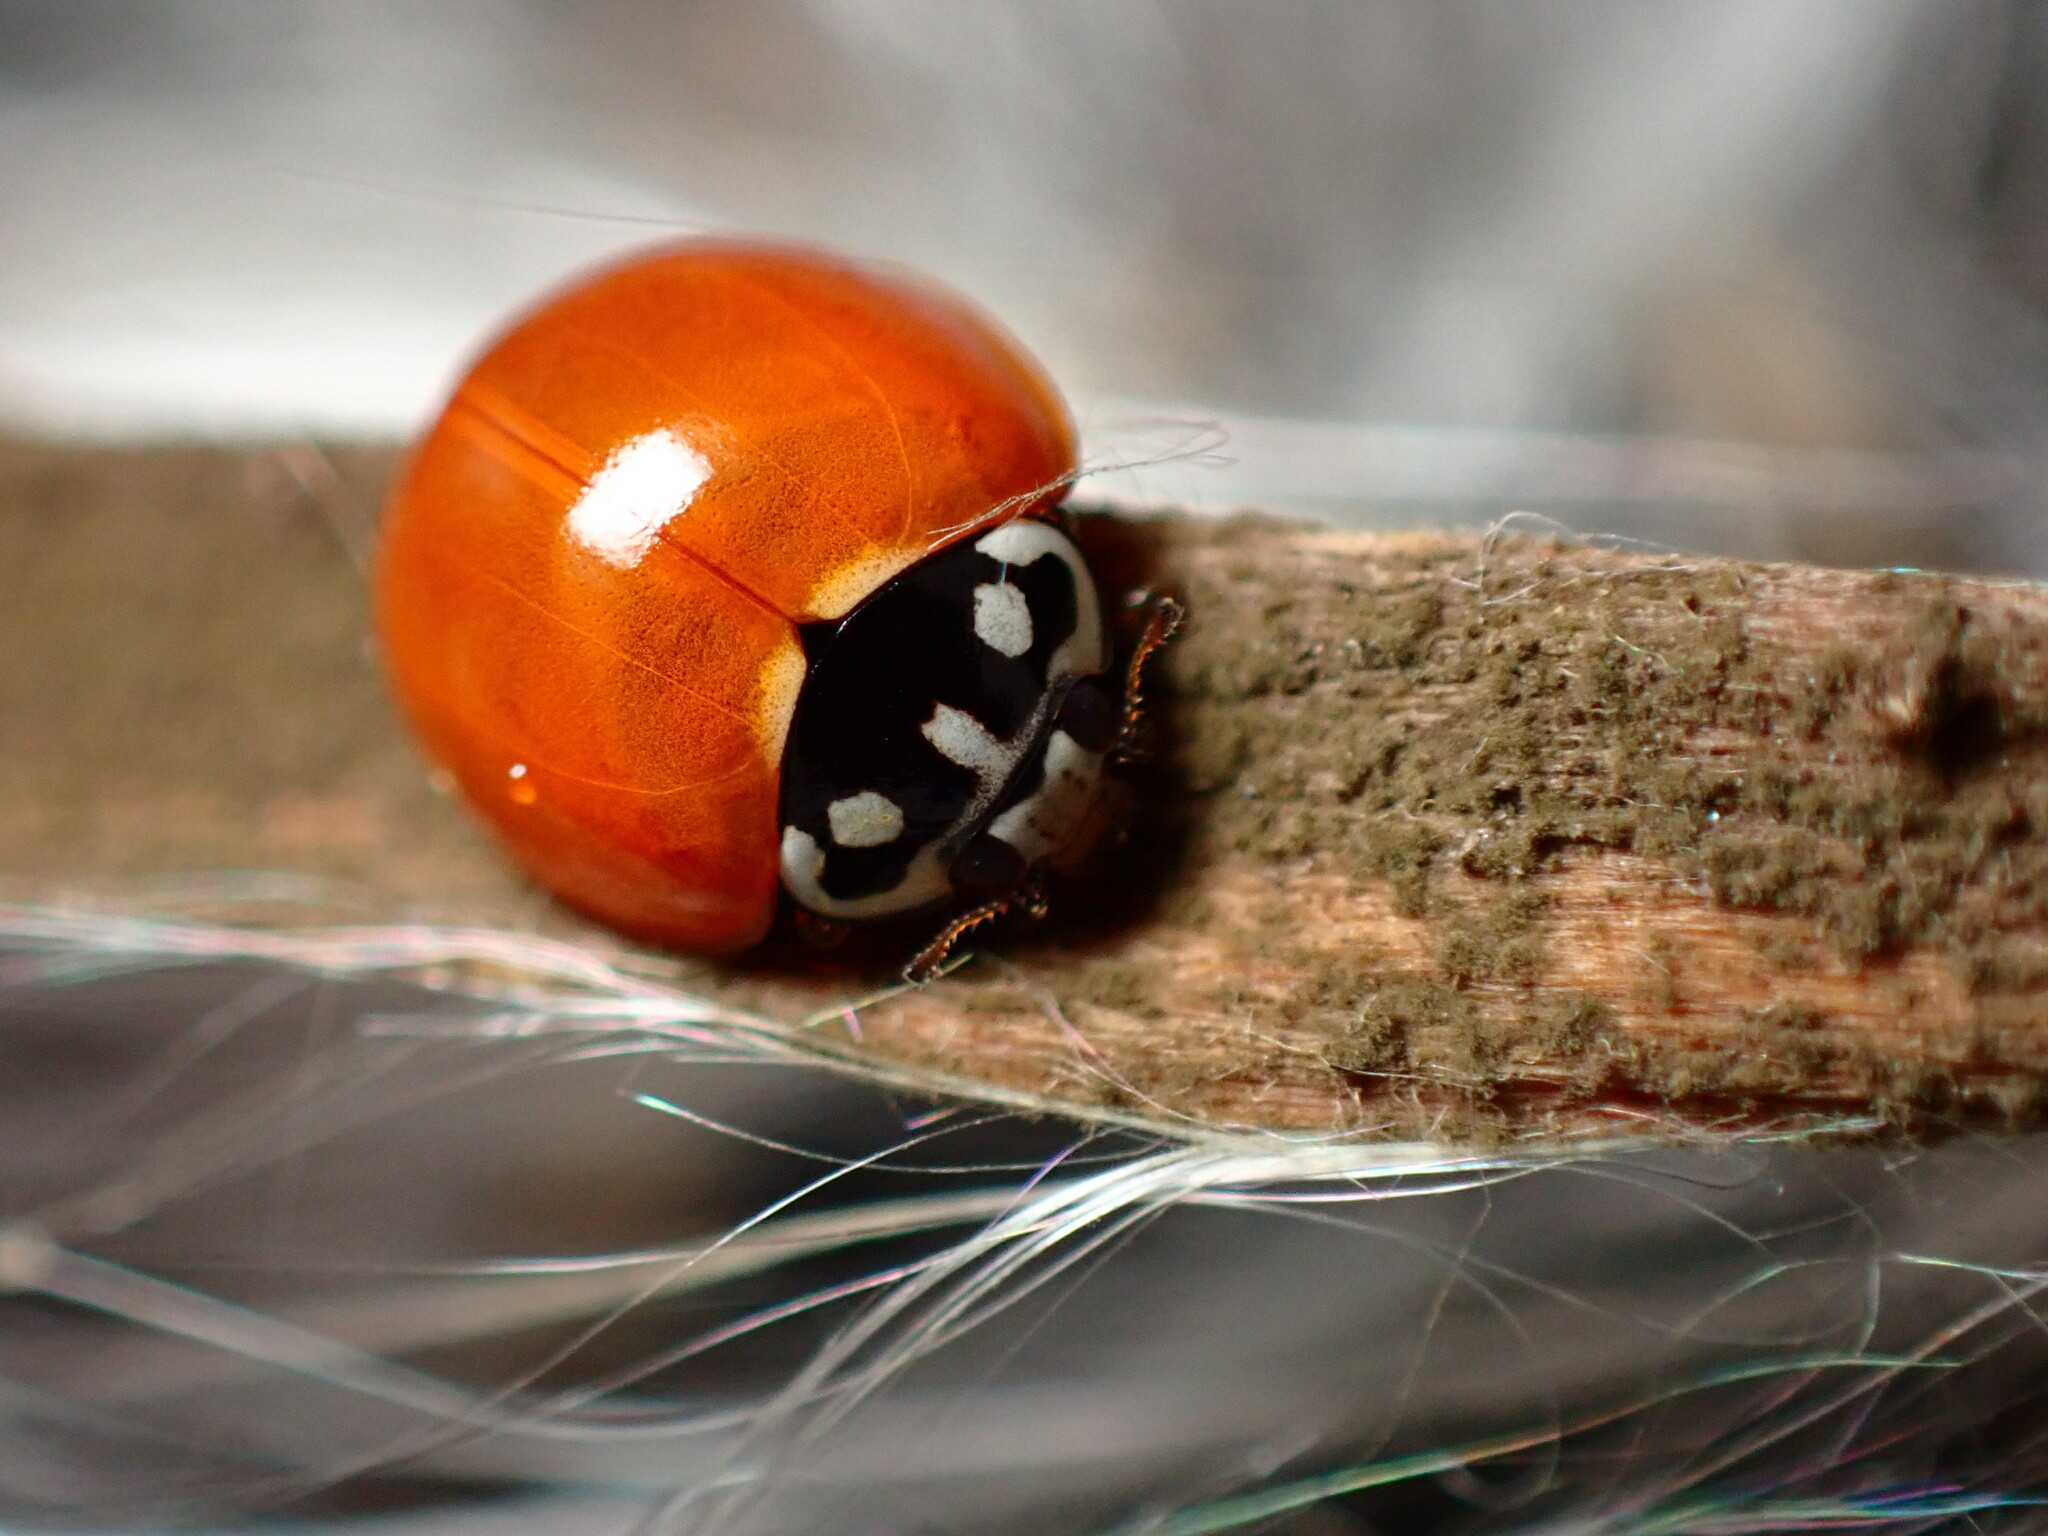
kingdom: Animalia
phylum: Arthropoda
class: Insecta
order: Coleoptera
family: Coccinellidae
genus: Cycloneda
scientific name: Cycloneda sanguinea
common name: Ladybird beetle
